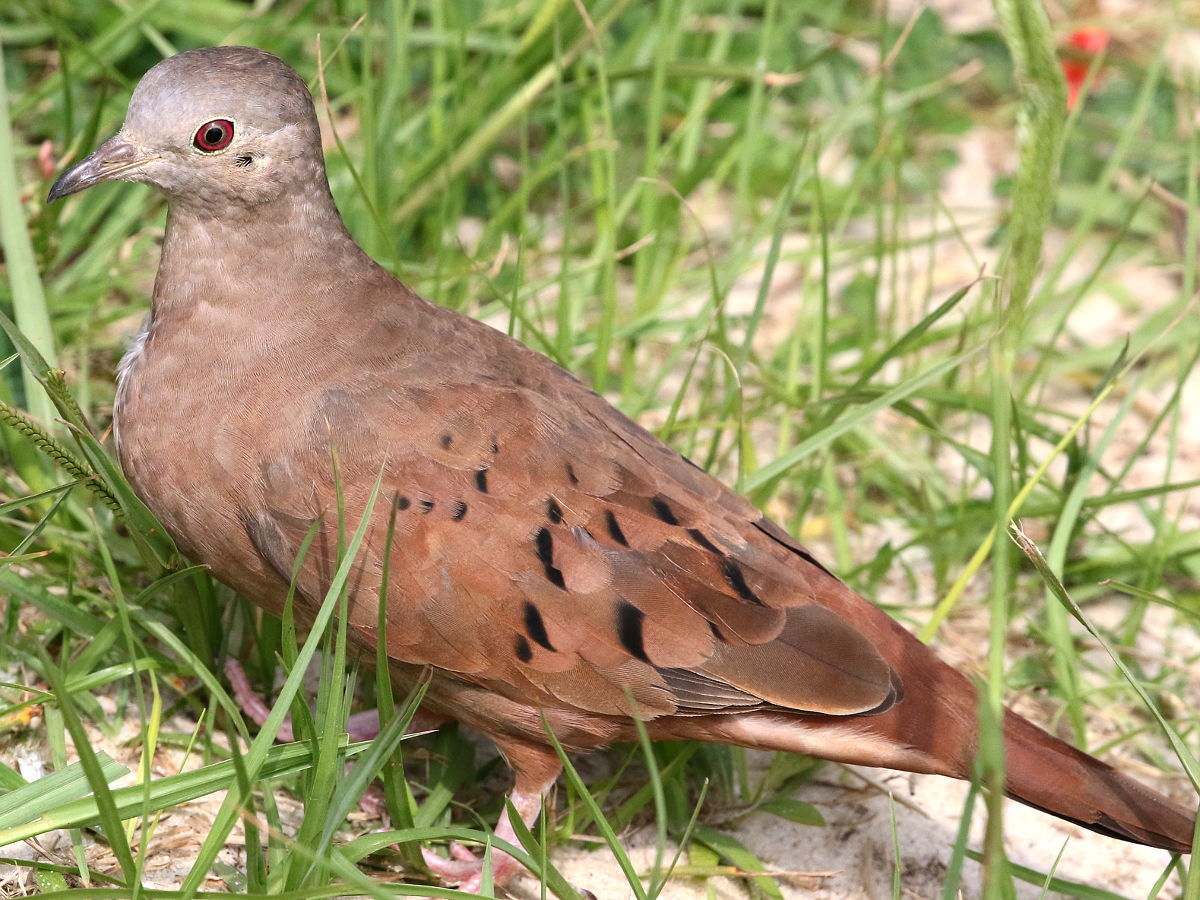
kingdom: Animalia
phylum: Chordata
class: Aves
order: Columbiformes
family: Columbidae
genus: Columbina
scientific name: Columbina talpacoti
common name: Ruddy ground dove
